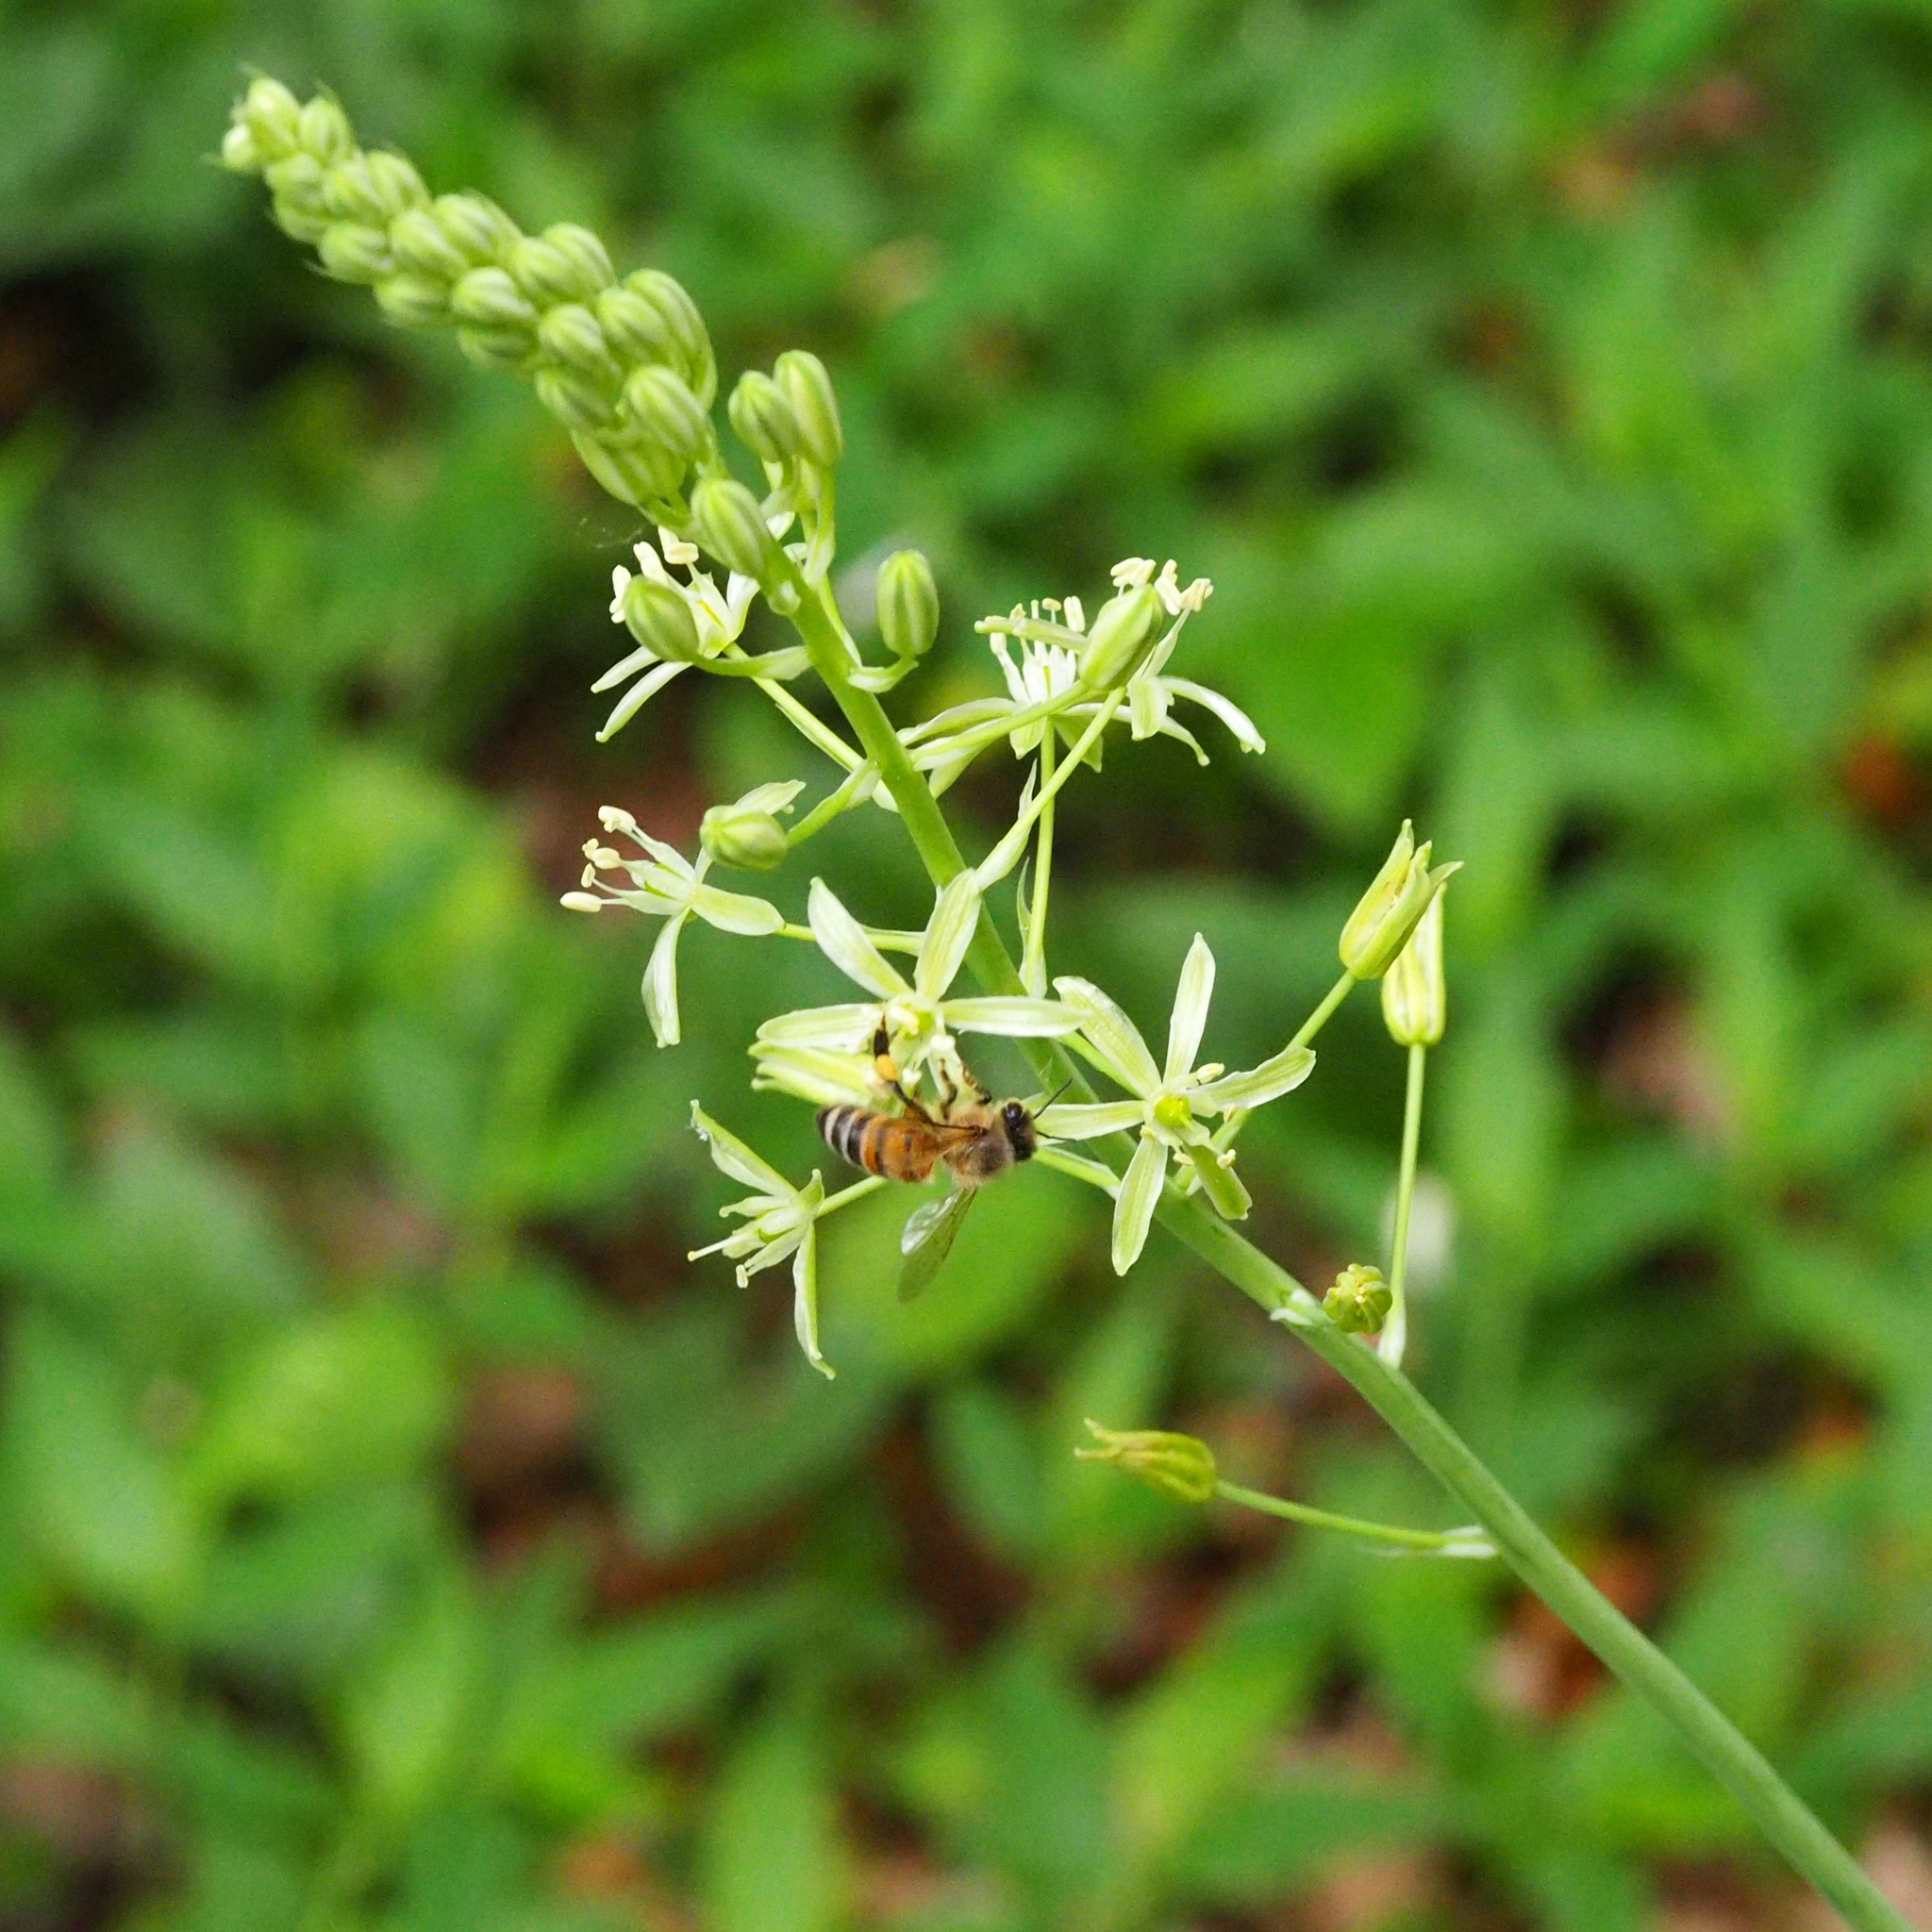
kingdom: Animalia
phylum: Arthropoda
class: Insecta
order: Hymenoptera
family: Apidae
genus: Apis
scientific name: Apis mellifera
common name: Honey bee
